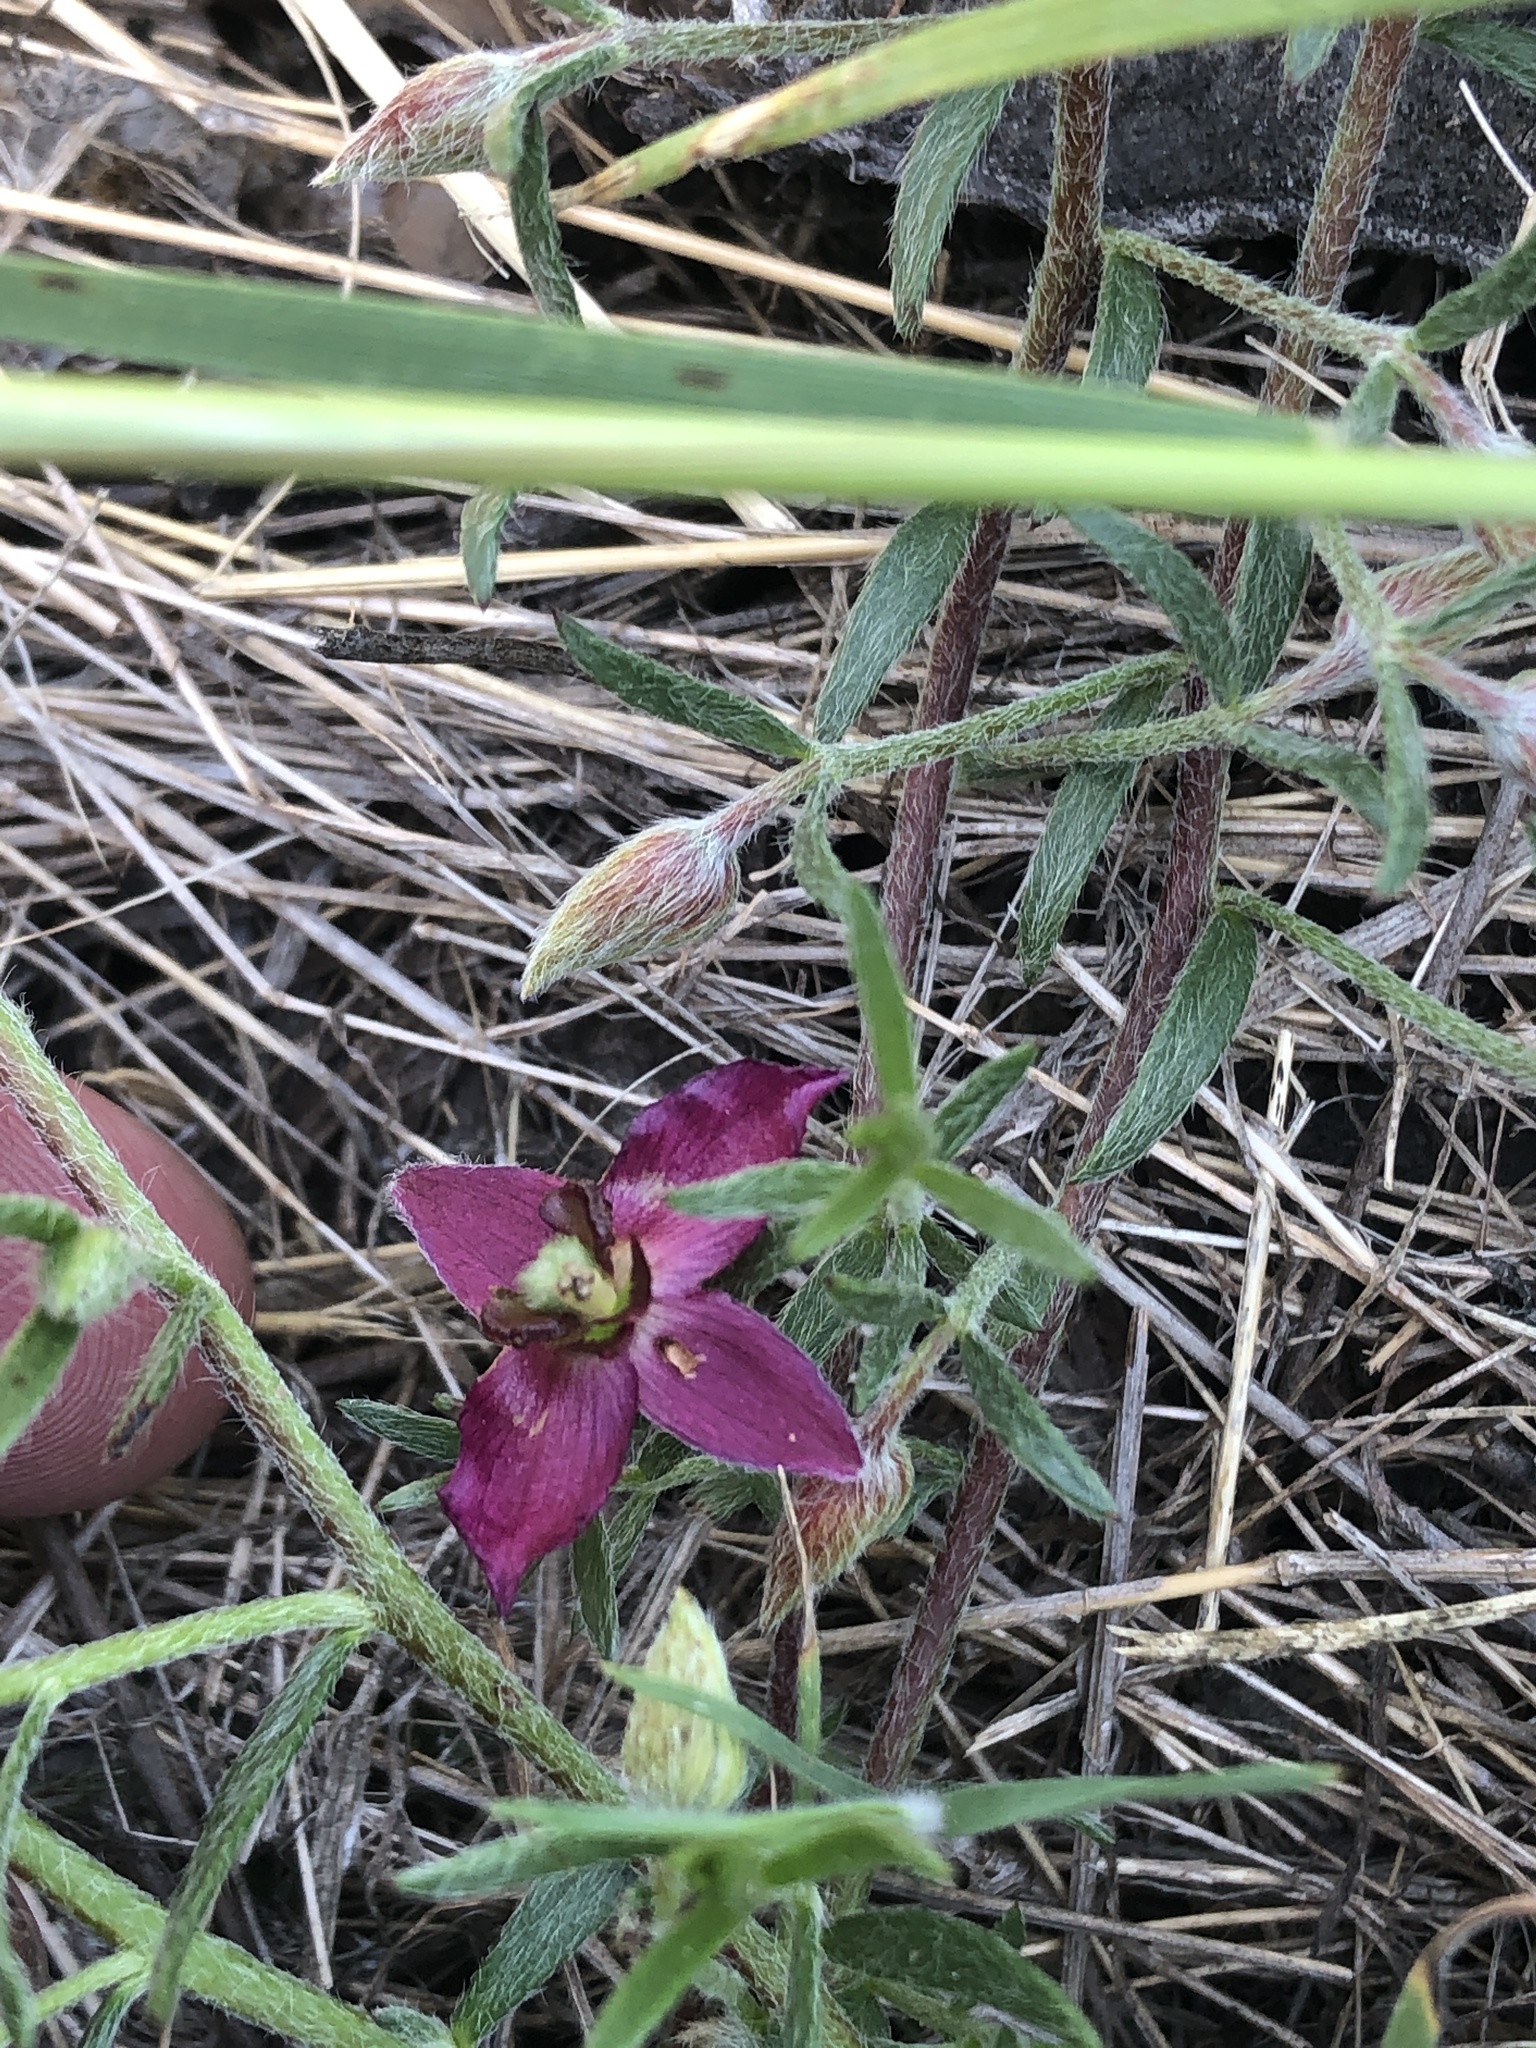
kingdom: Plantae
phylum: Tracheophyta
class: Magnoliopsida
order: Zygophyllales
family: Krameriaceae
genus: Krameria
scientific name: Krameria lanceolata
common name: Ratany
